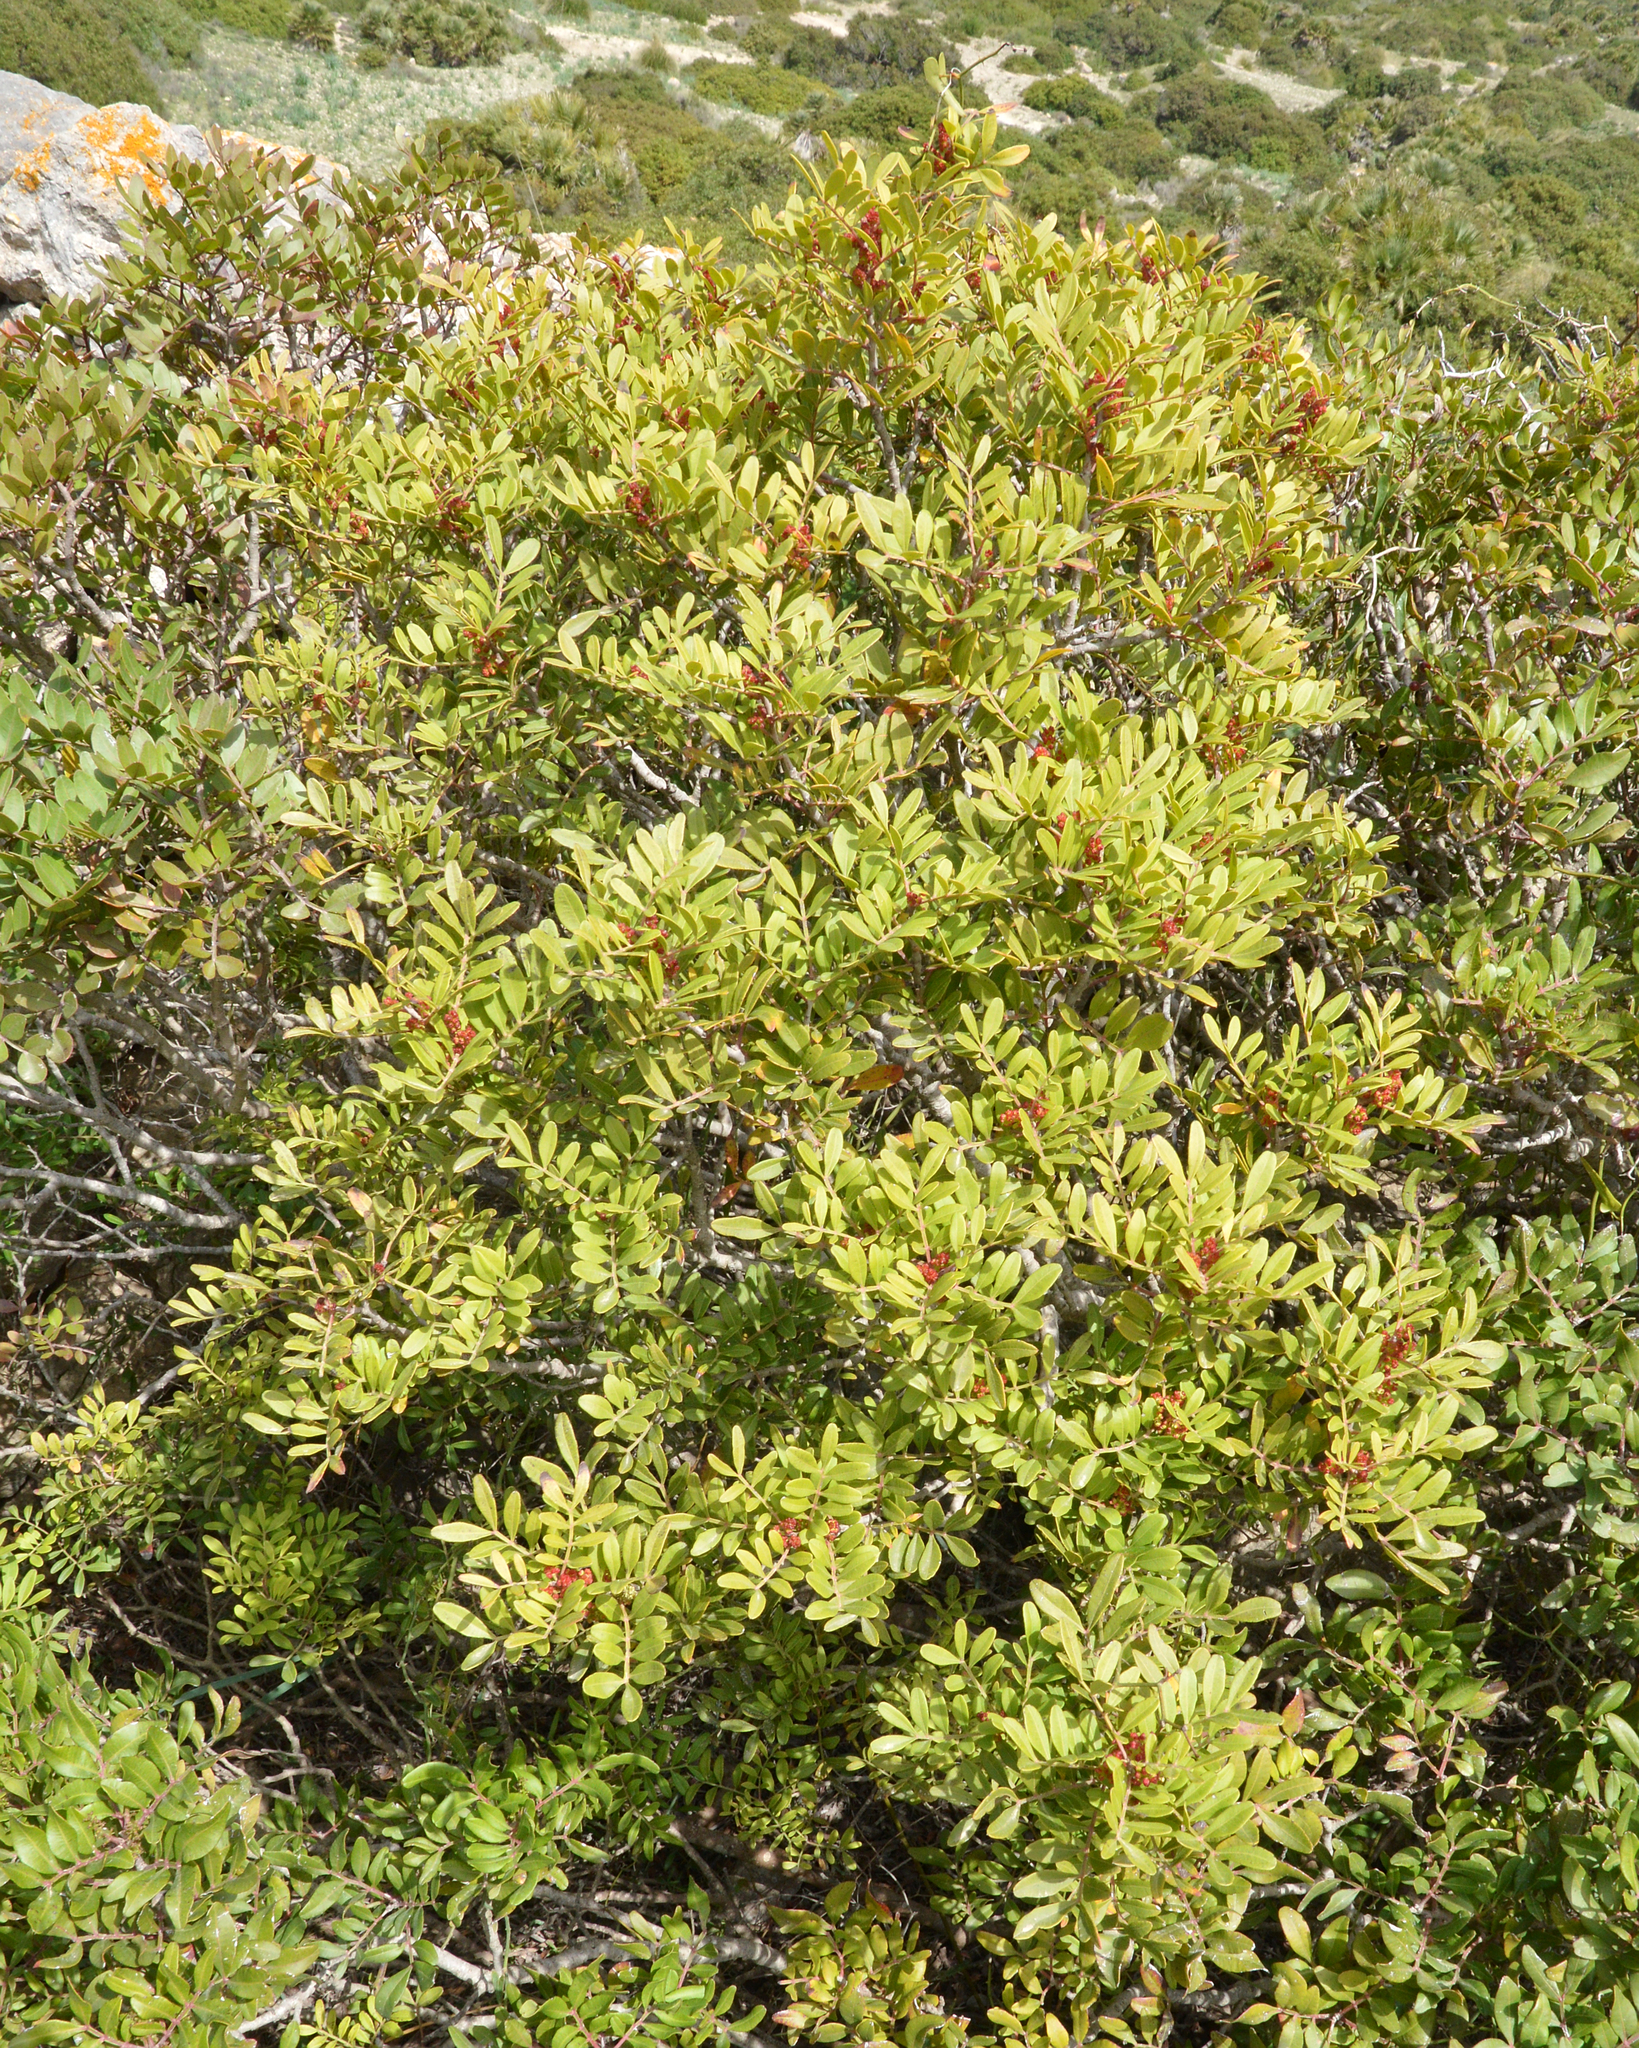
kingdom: Plantae
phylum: Tracheophyta
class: Magnoliopsida
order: Sapindales
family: Anacardiaceae
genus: Pistacia
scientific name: Pistacia lentiscus
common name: Lentisk
